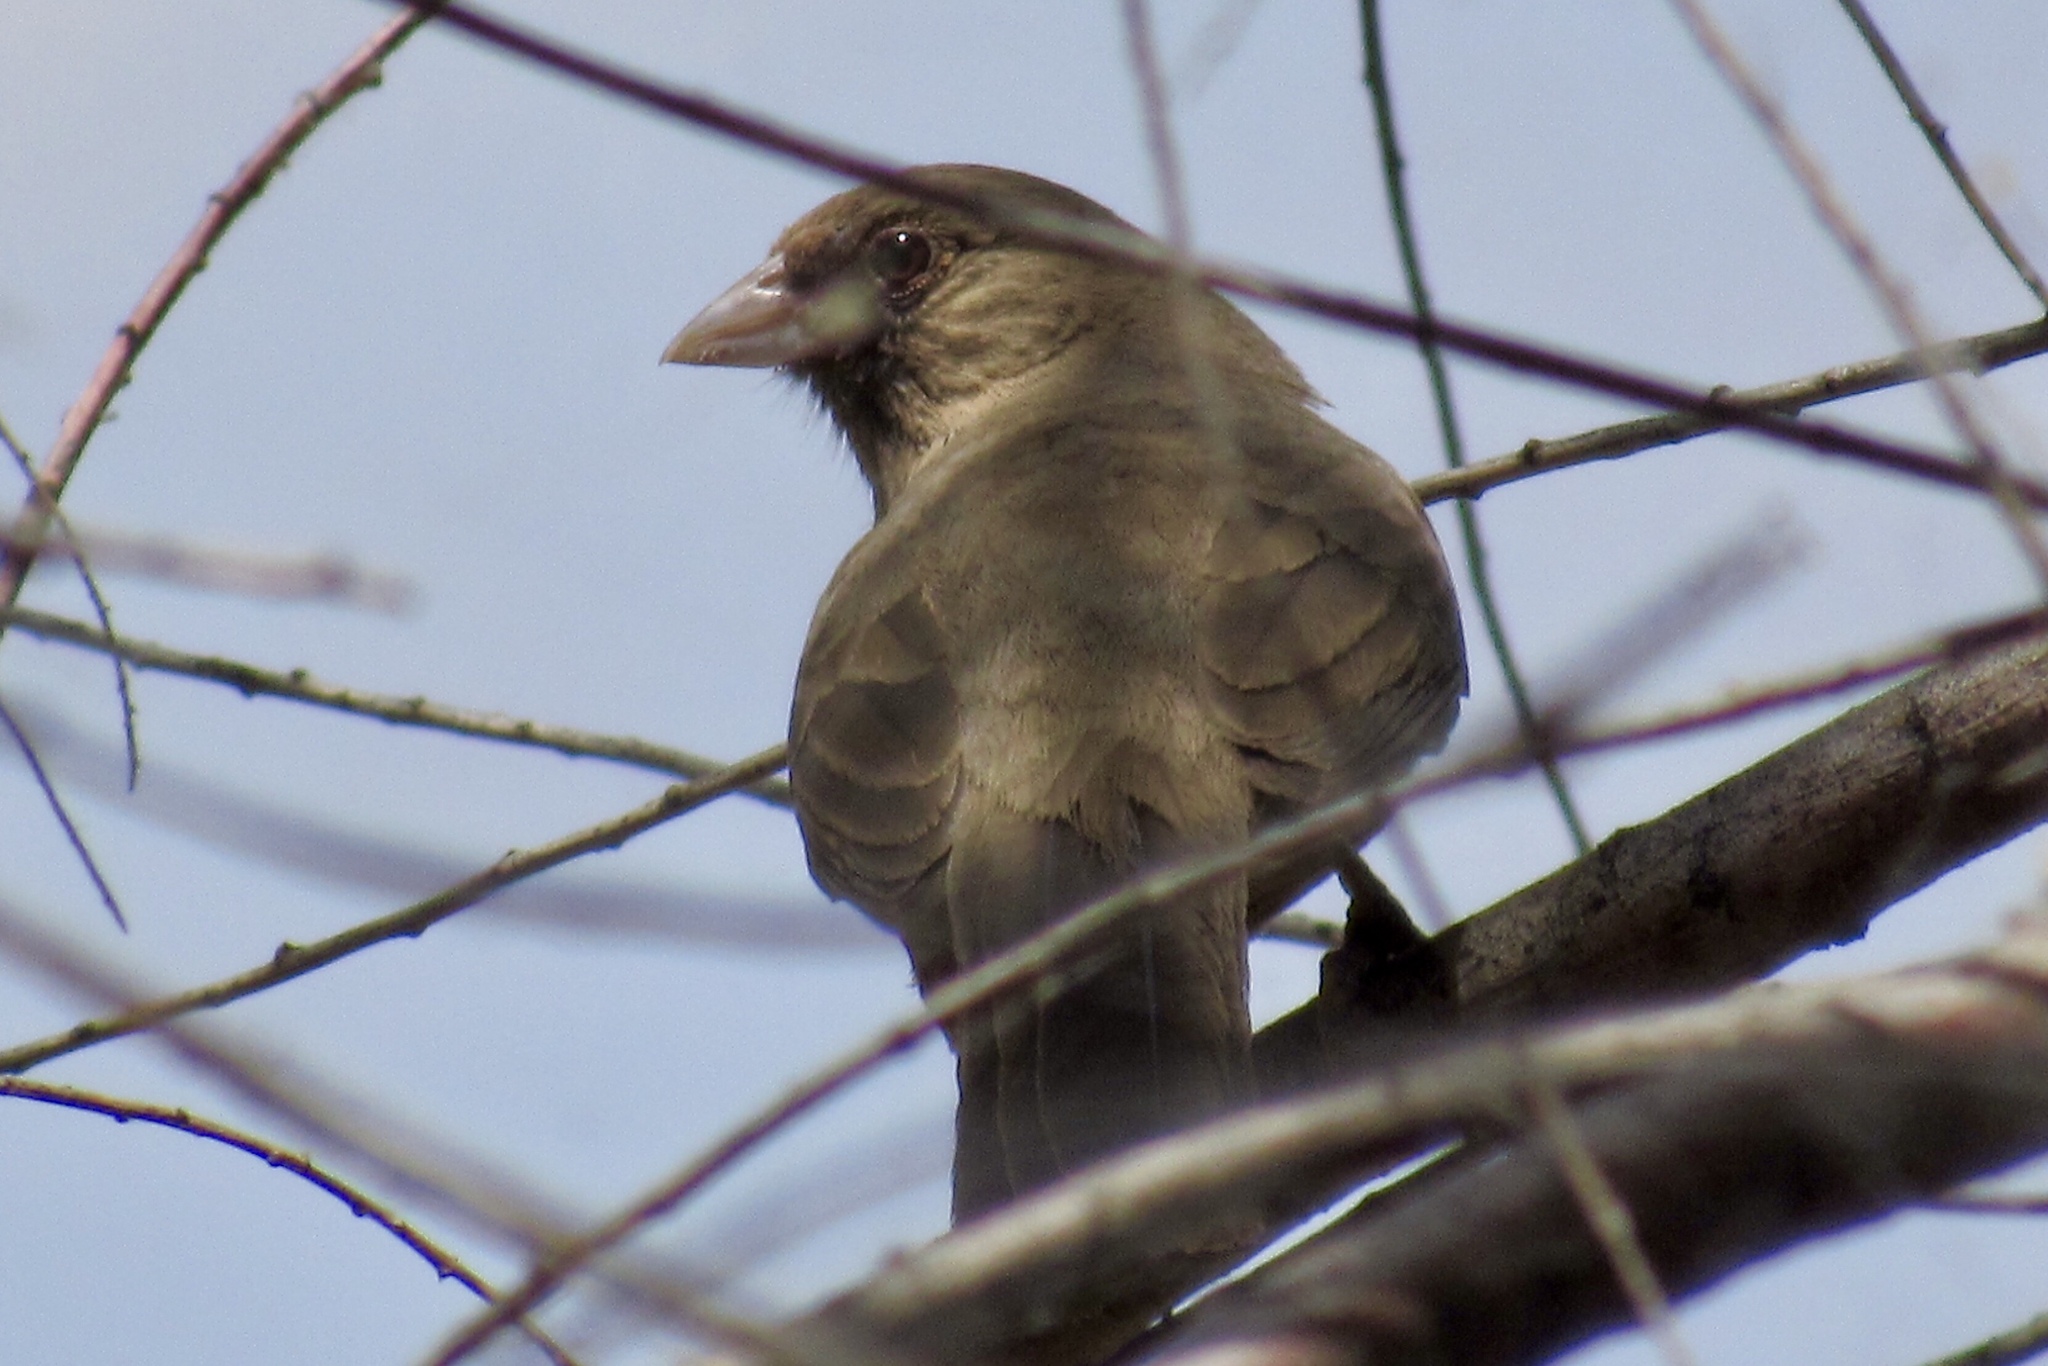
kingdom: Animalia
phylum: Chordata
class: Aves
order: Passeriformes
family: Passerellidae
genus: Melozone
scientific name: Melozone aberti
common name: Abert's towhee
